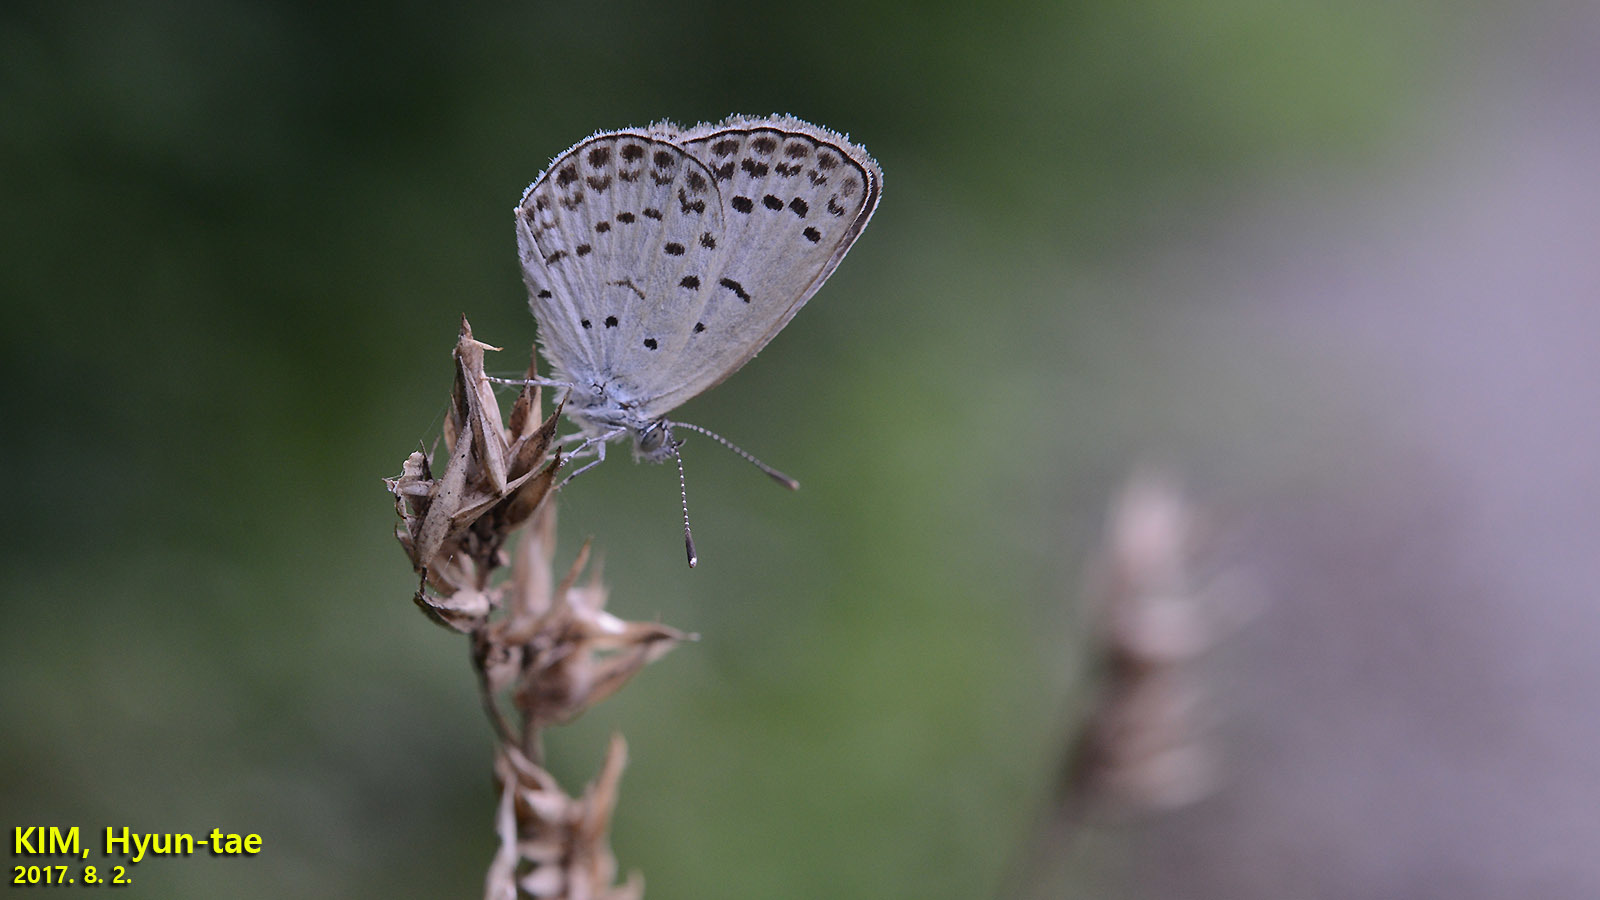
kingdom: Animalia
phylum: Arthropoda
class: Insecta
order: Lepidoptera
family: Lycaenidae
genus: Pseudozizeeria
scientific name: Pseudozizeeria maha
